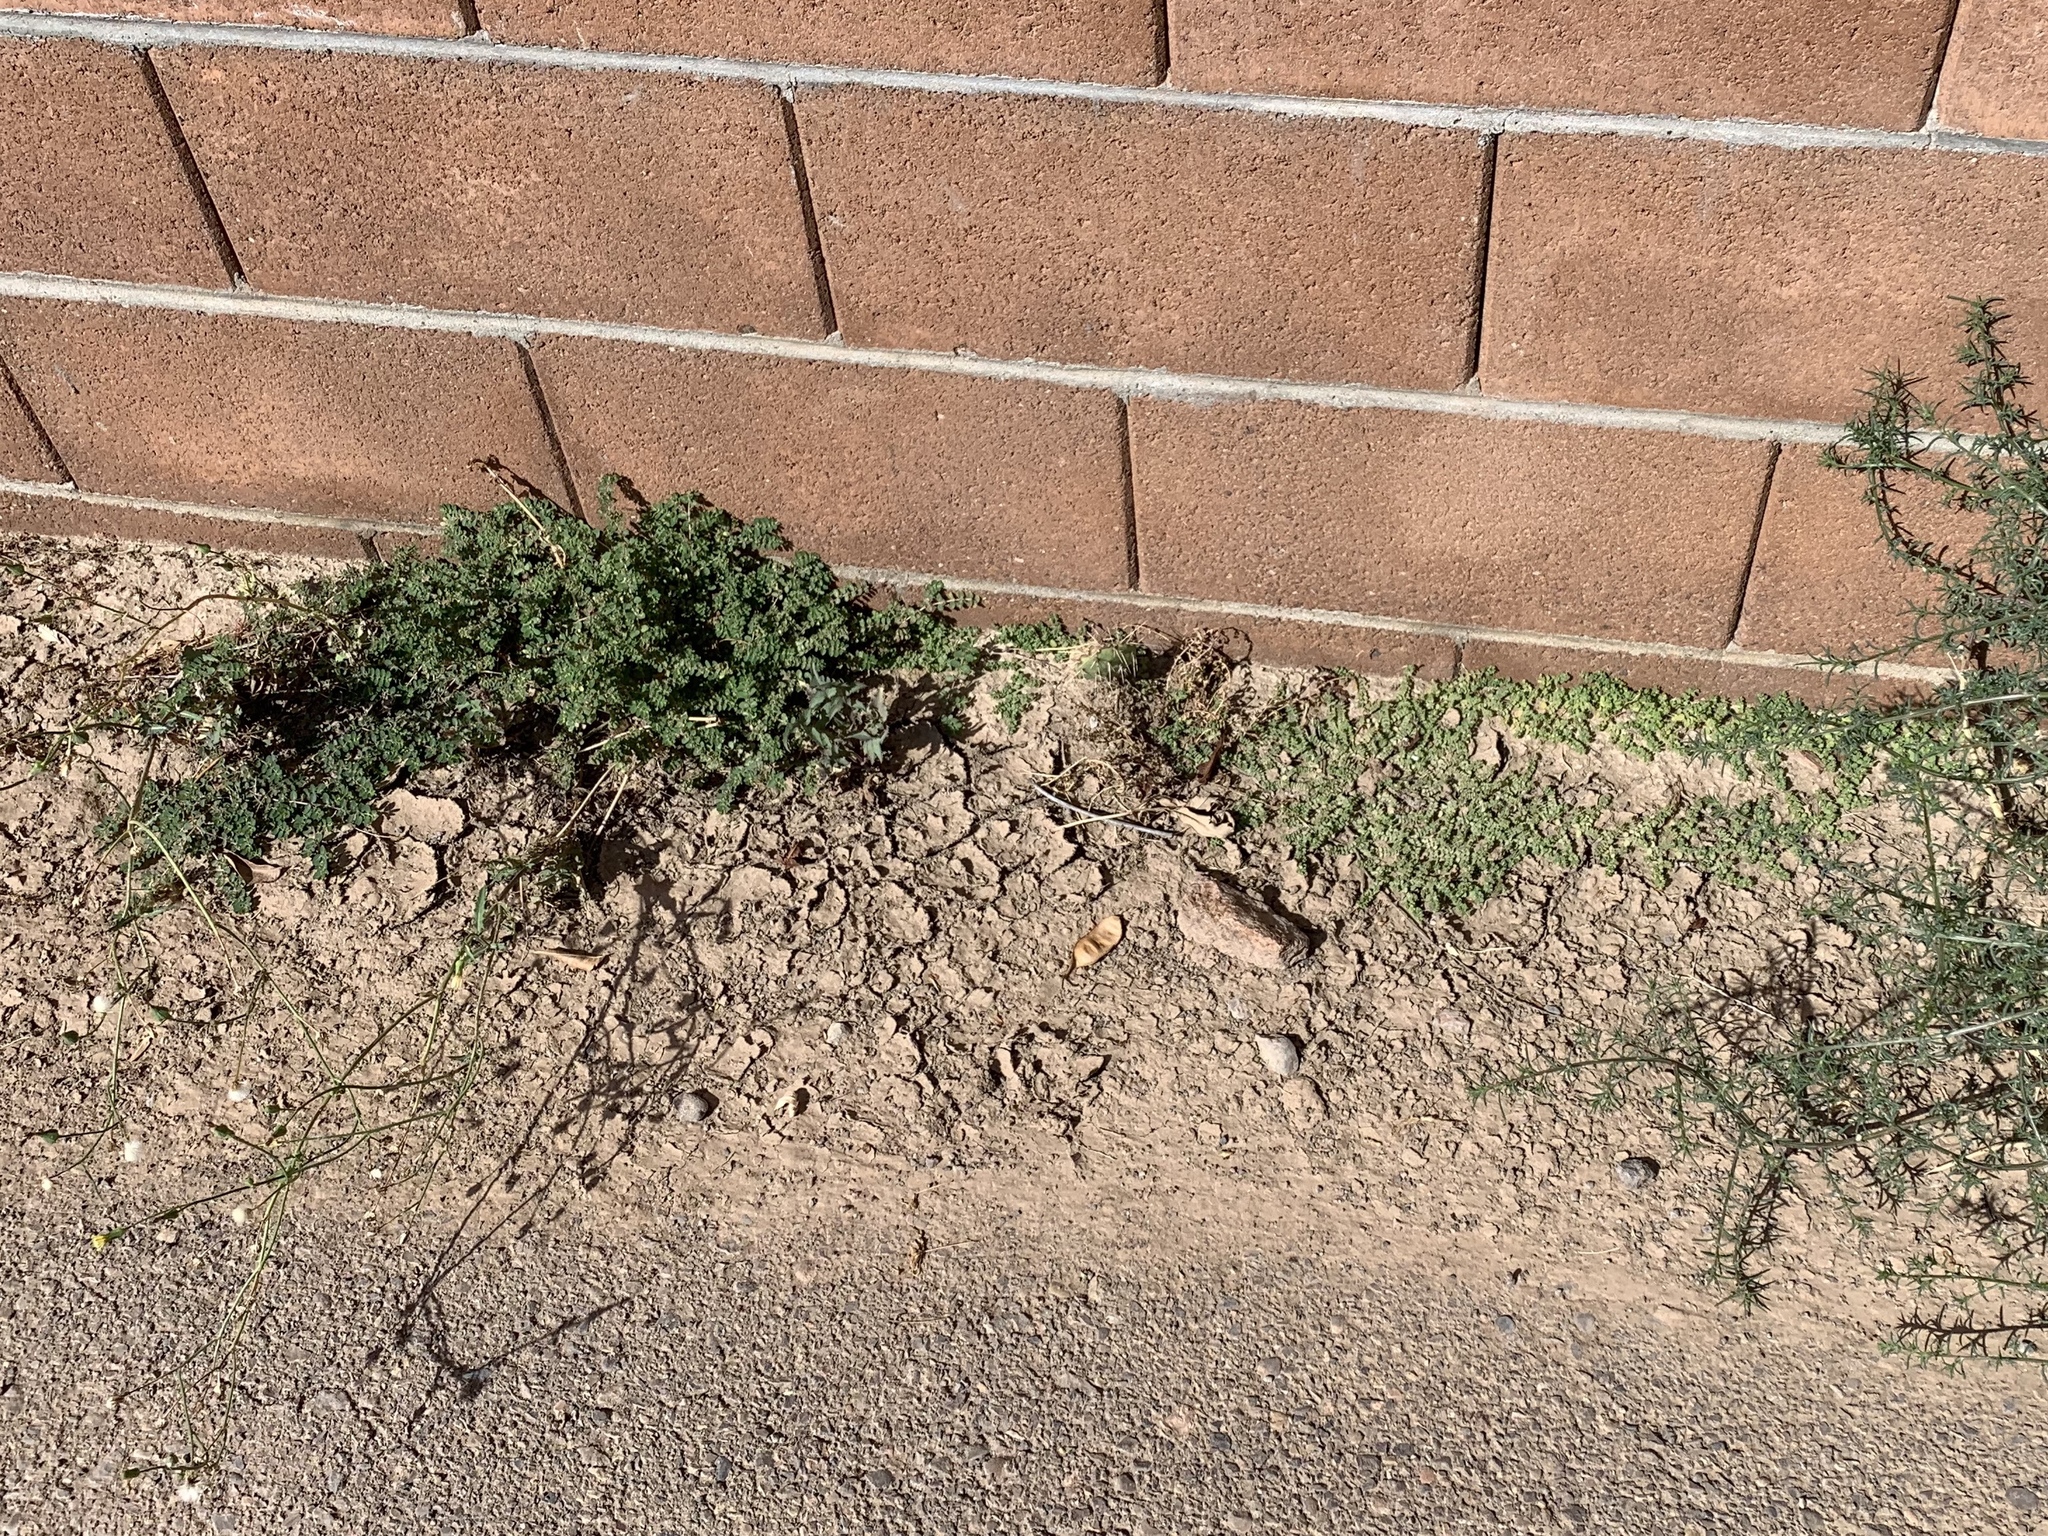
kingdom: Plantae
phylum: Tracheophyta
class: Magnoliopsida
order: Malpighiales
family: Euphorbiaceae
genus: Euphorbia
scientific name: Euphorbia prostrata
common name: Prostrate sandmat
